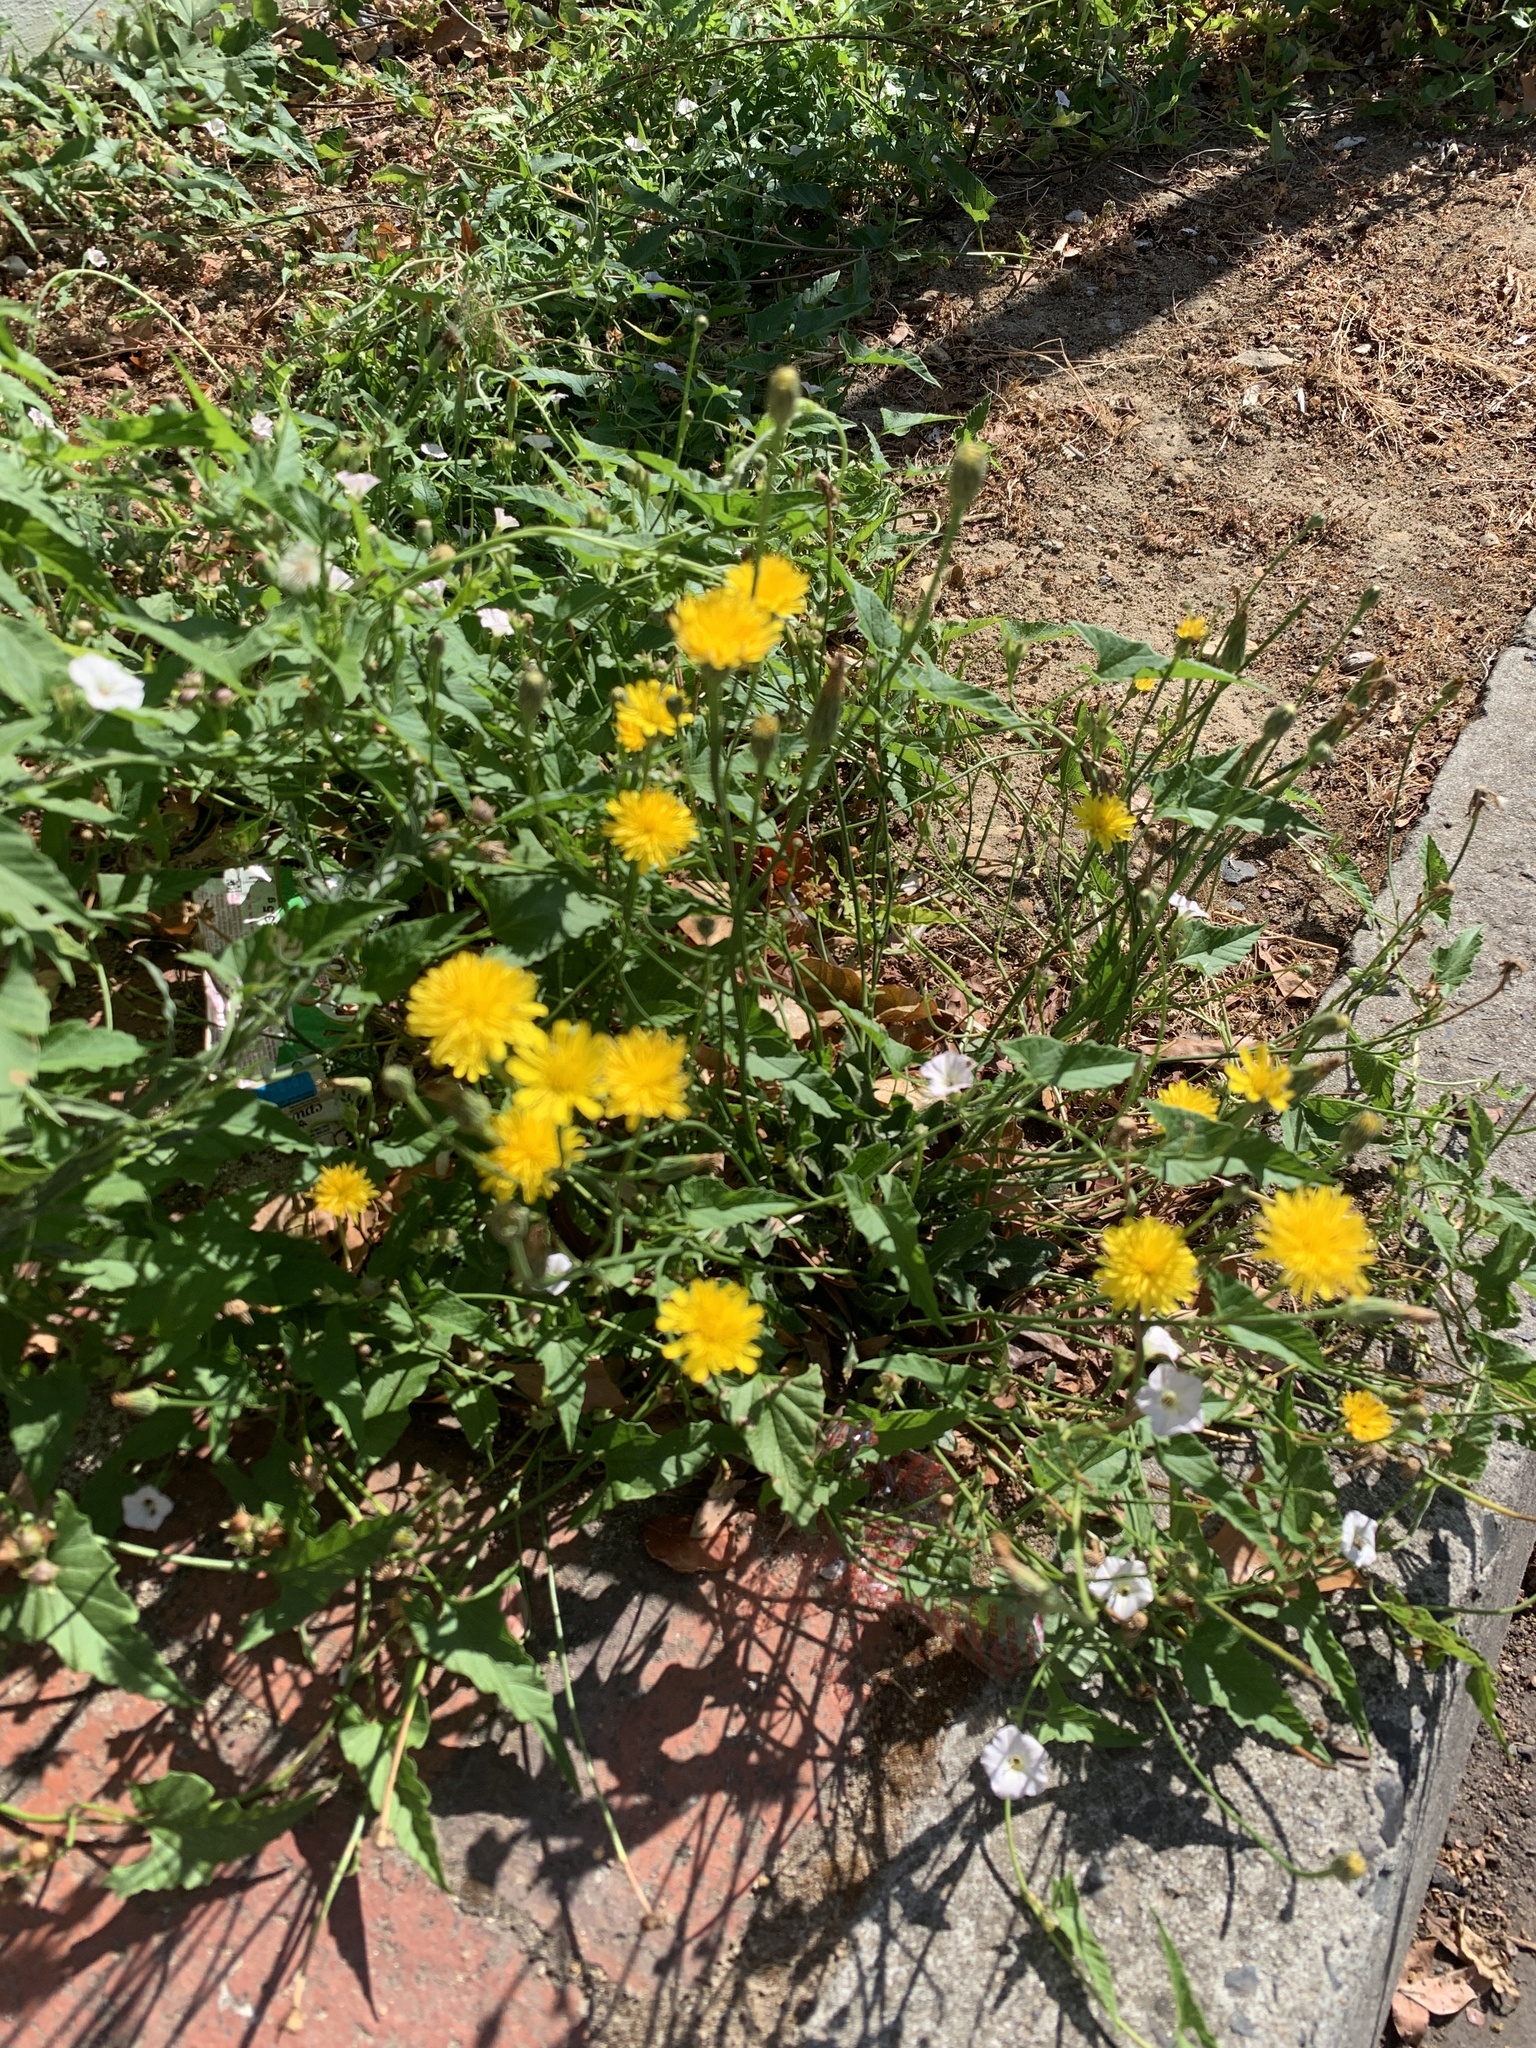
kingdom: Plantae
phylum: Tracheophyta
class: Magnoliopsida
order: Asterales
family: Asteraceae
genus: Hypochaeris
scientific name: Hypochaeris radicata
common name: Flatweed
